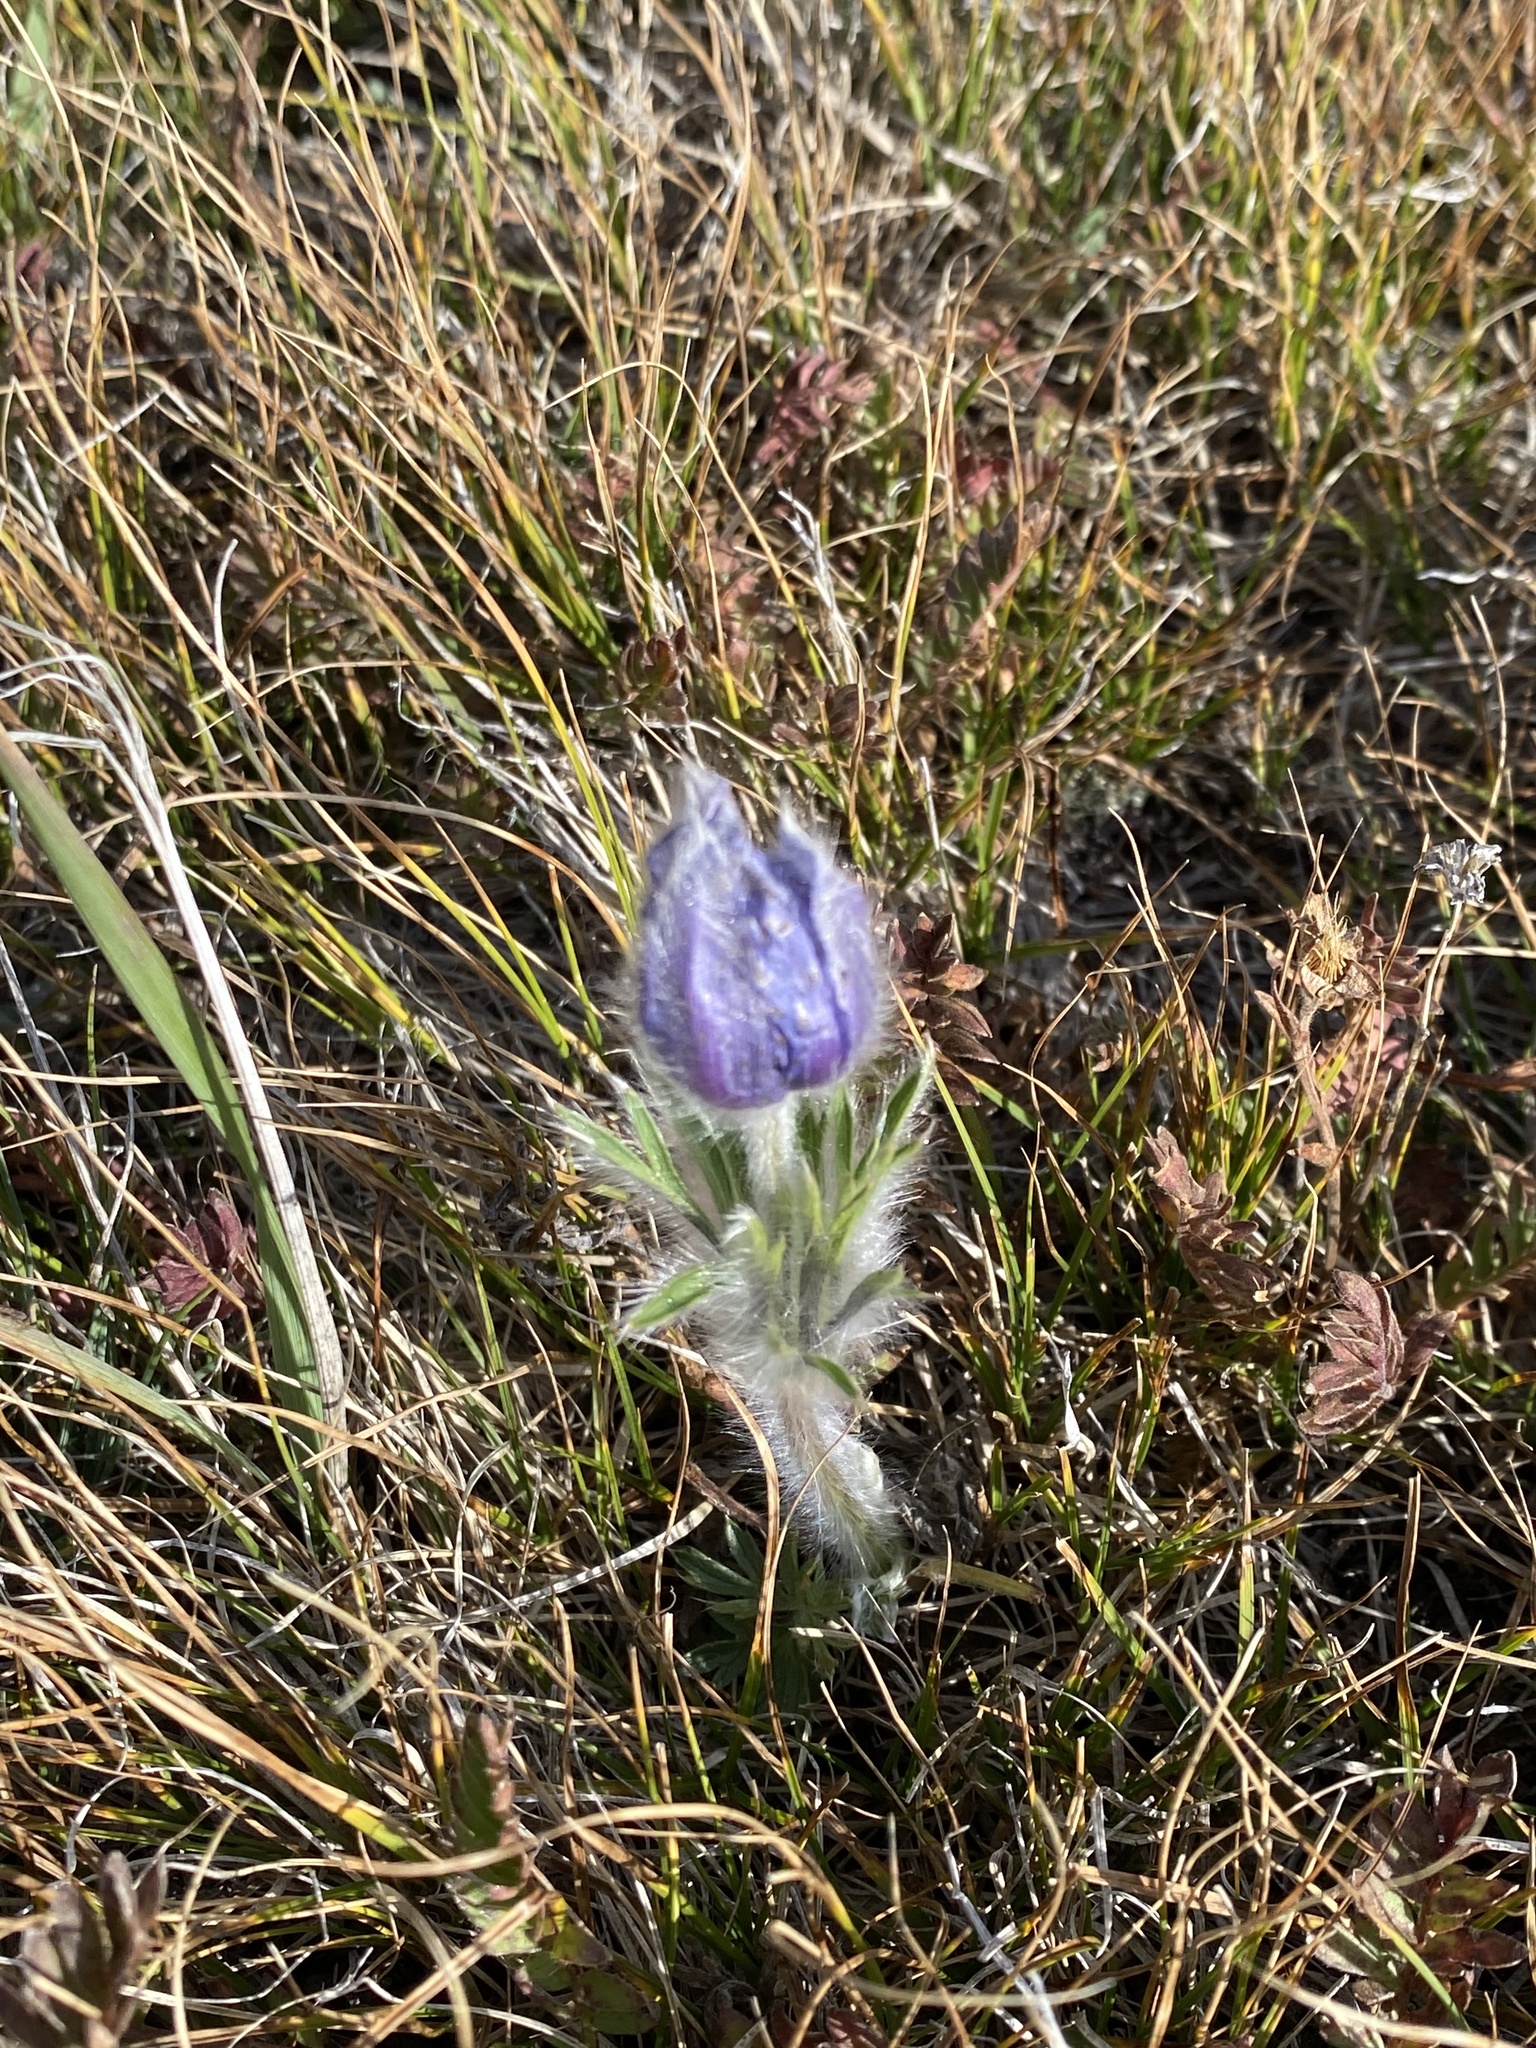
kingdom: Plantae
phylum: Tracheophyta
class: Magnoliopsida
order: Ranunculales
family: Ranunculaceae
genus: Pulsatilla
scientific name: Pulsatilla nuttalliana
